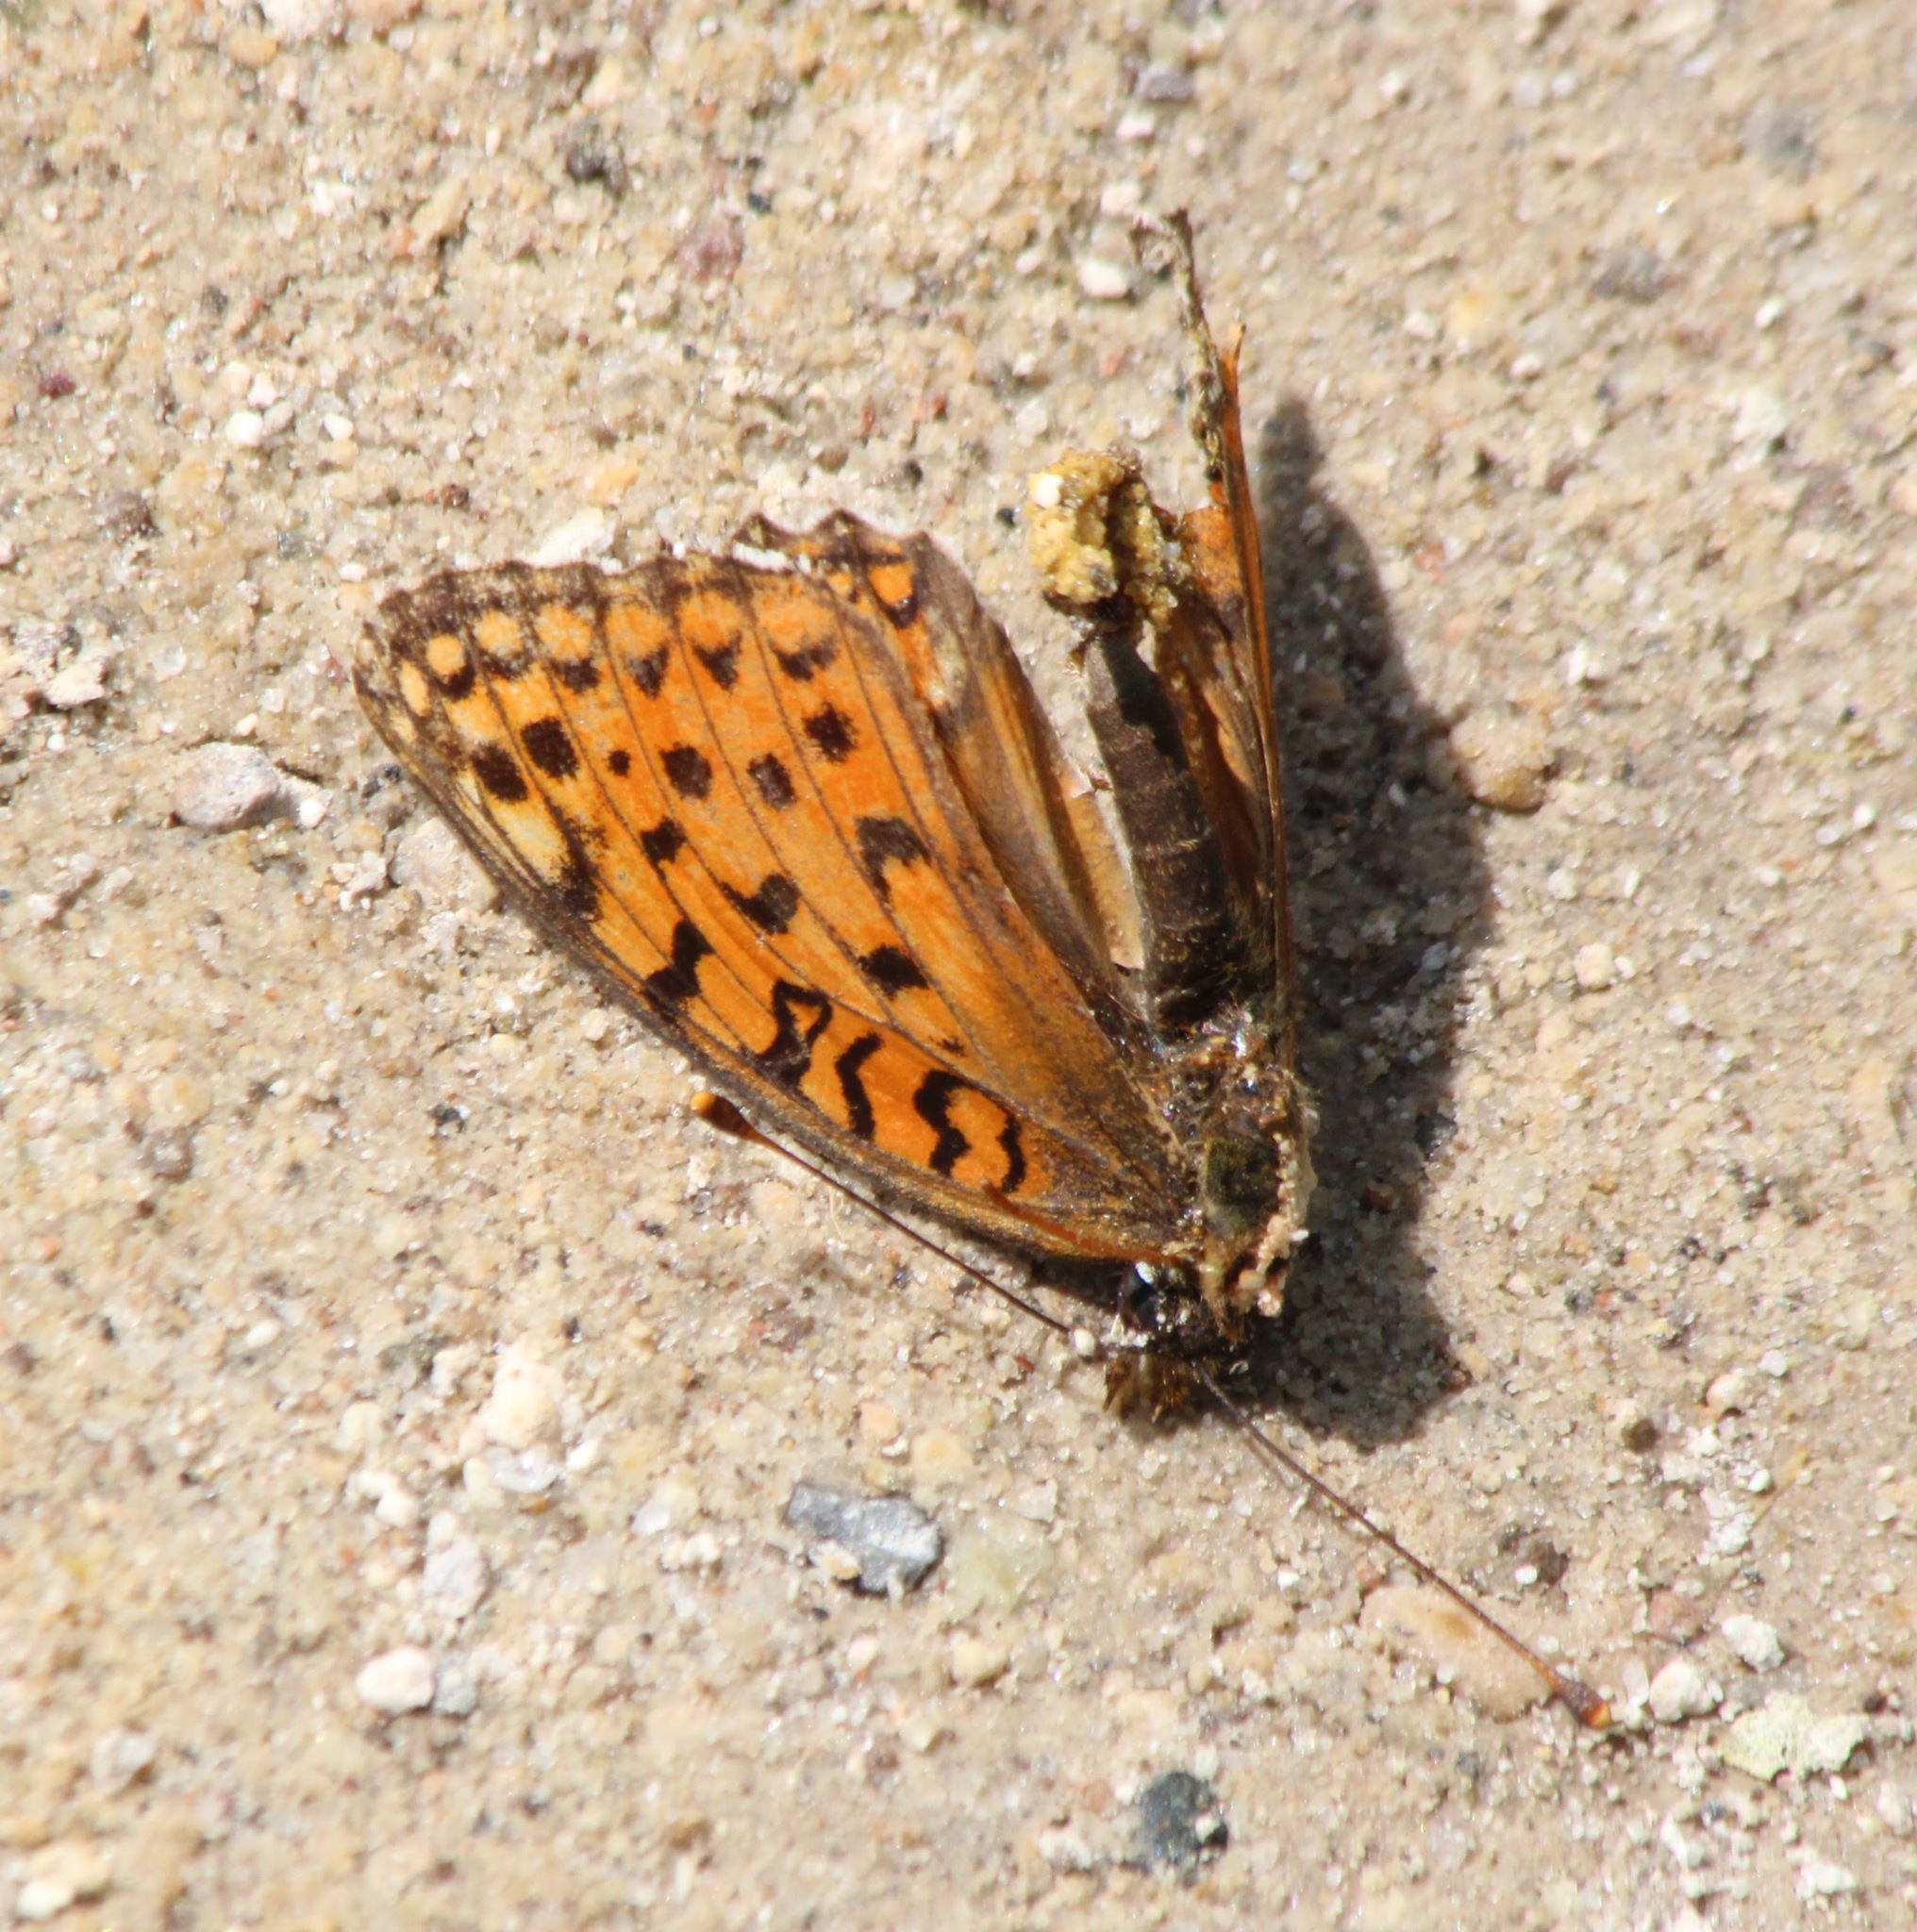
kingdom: Animalia
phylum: Arthropoda
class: Insecta
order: Lepidoptera
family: Nymphalidae
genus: Fabriciana
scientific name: Fabriciana niobe
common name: Niobe fritillary
